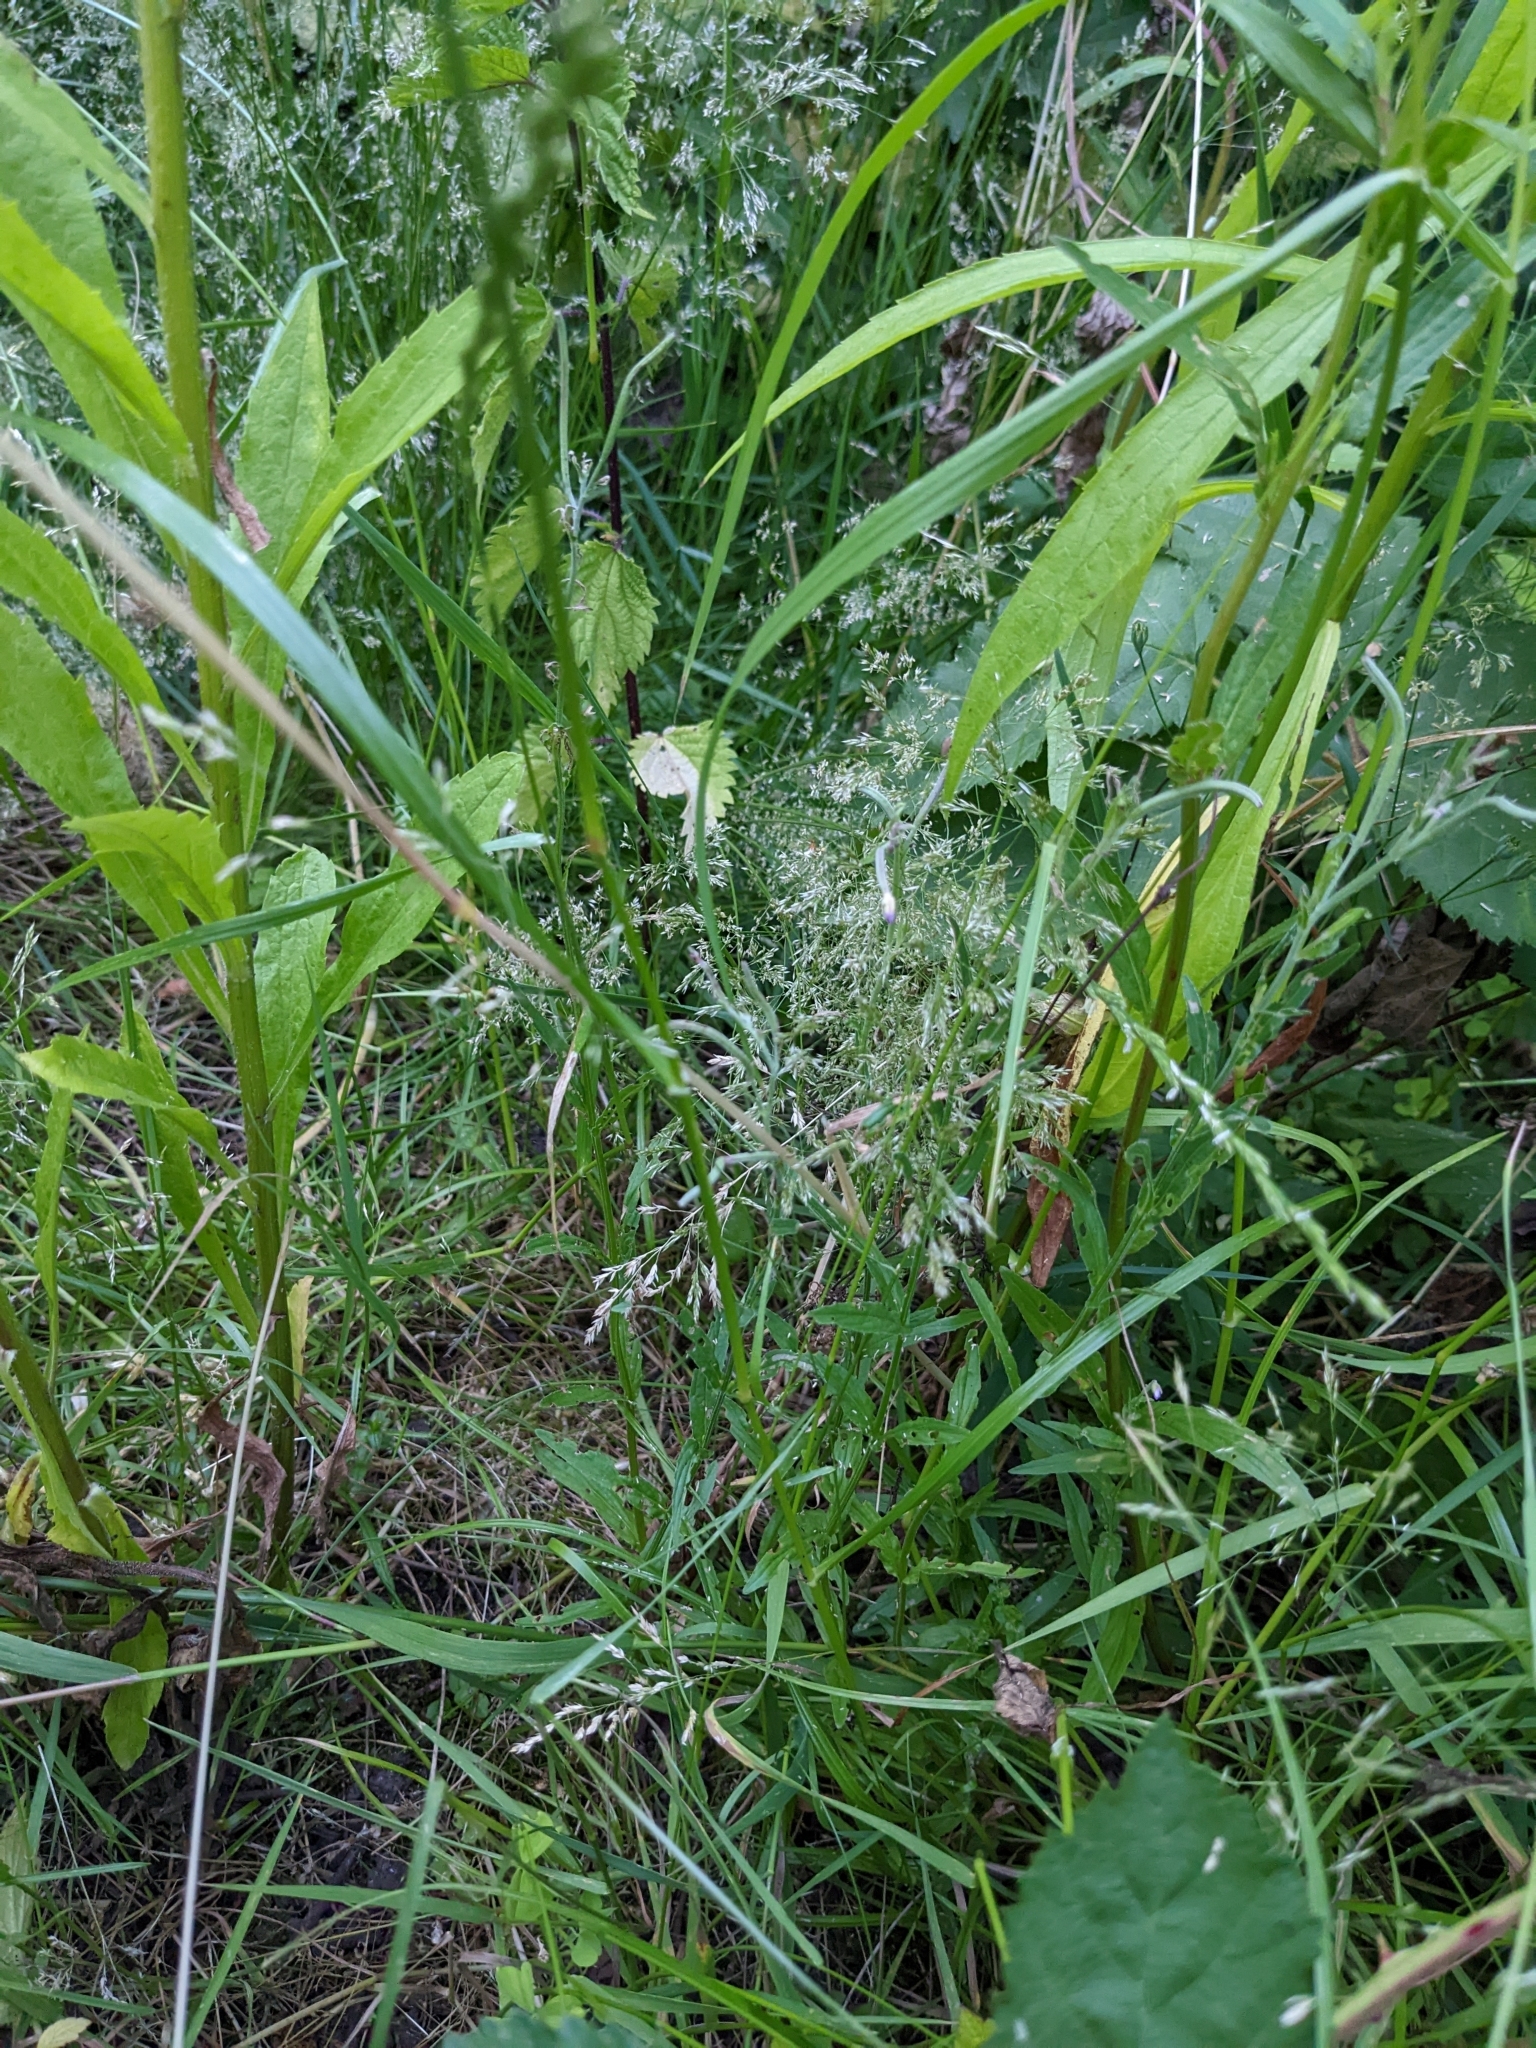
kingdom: Plantae
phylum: Tracheophyta
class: Liliopsida
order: Poales
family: Poaceae
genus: Lolium
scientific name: Lolium perenne
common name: Perennial ryegrass
